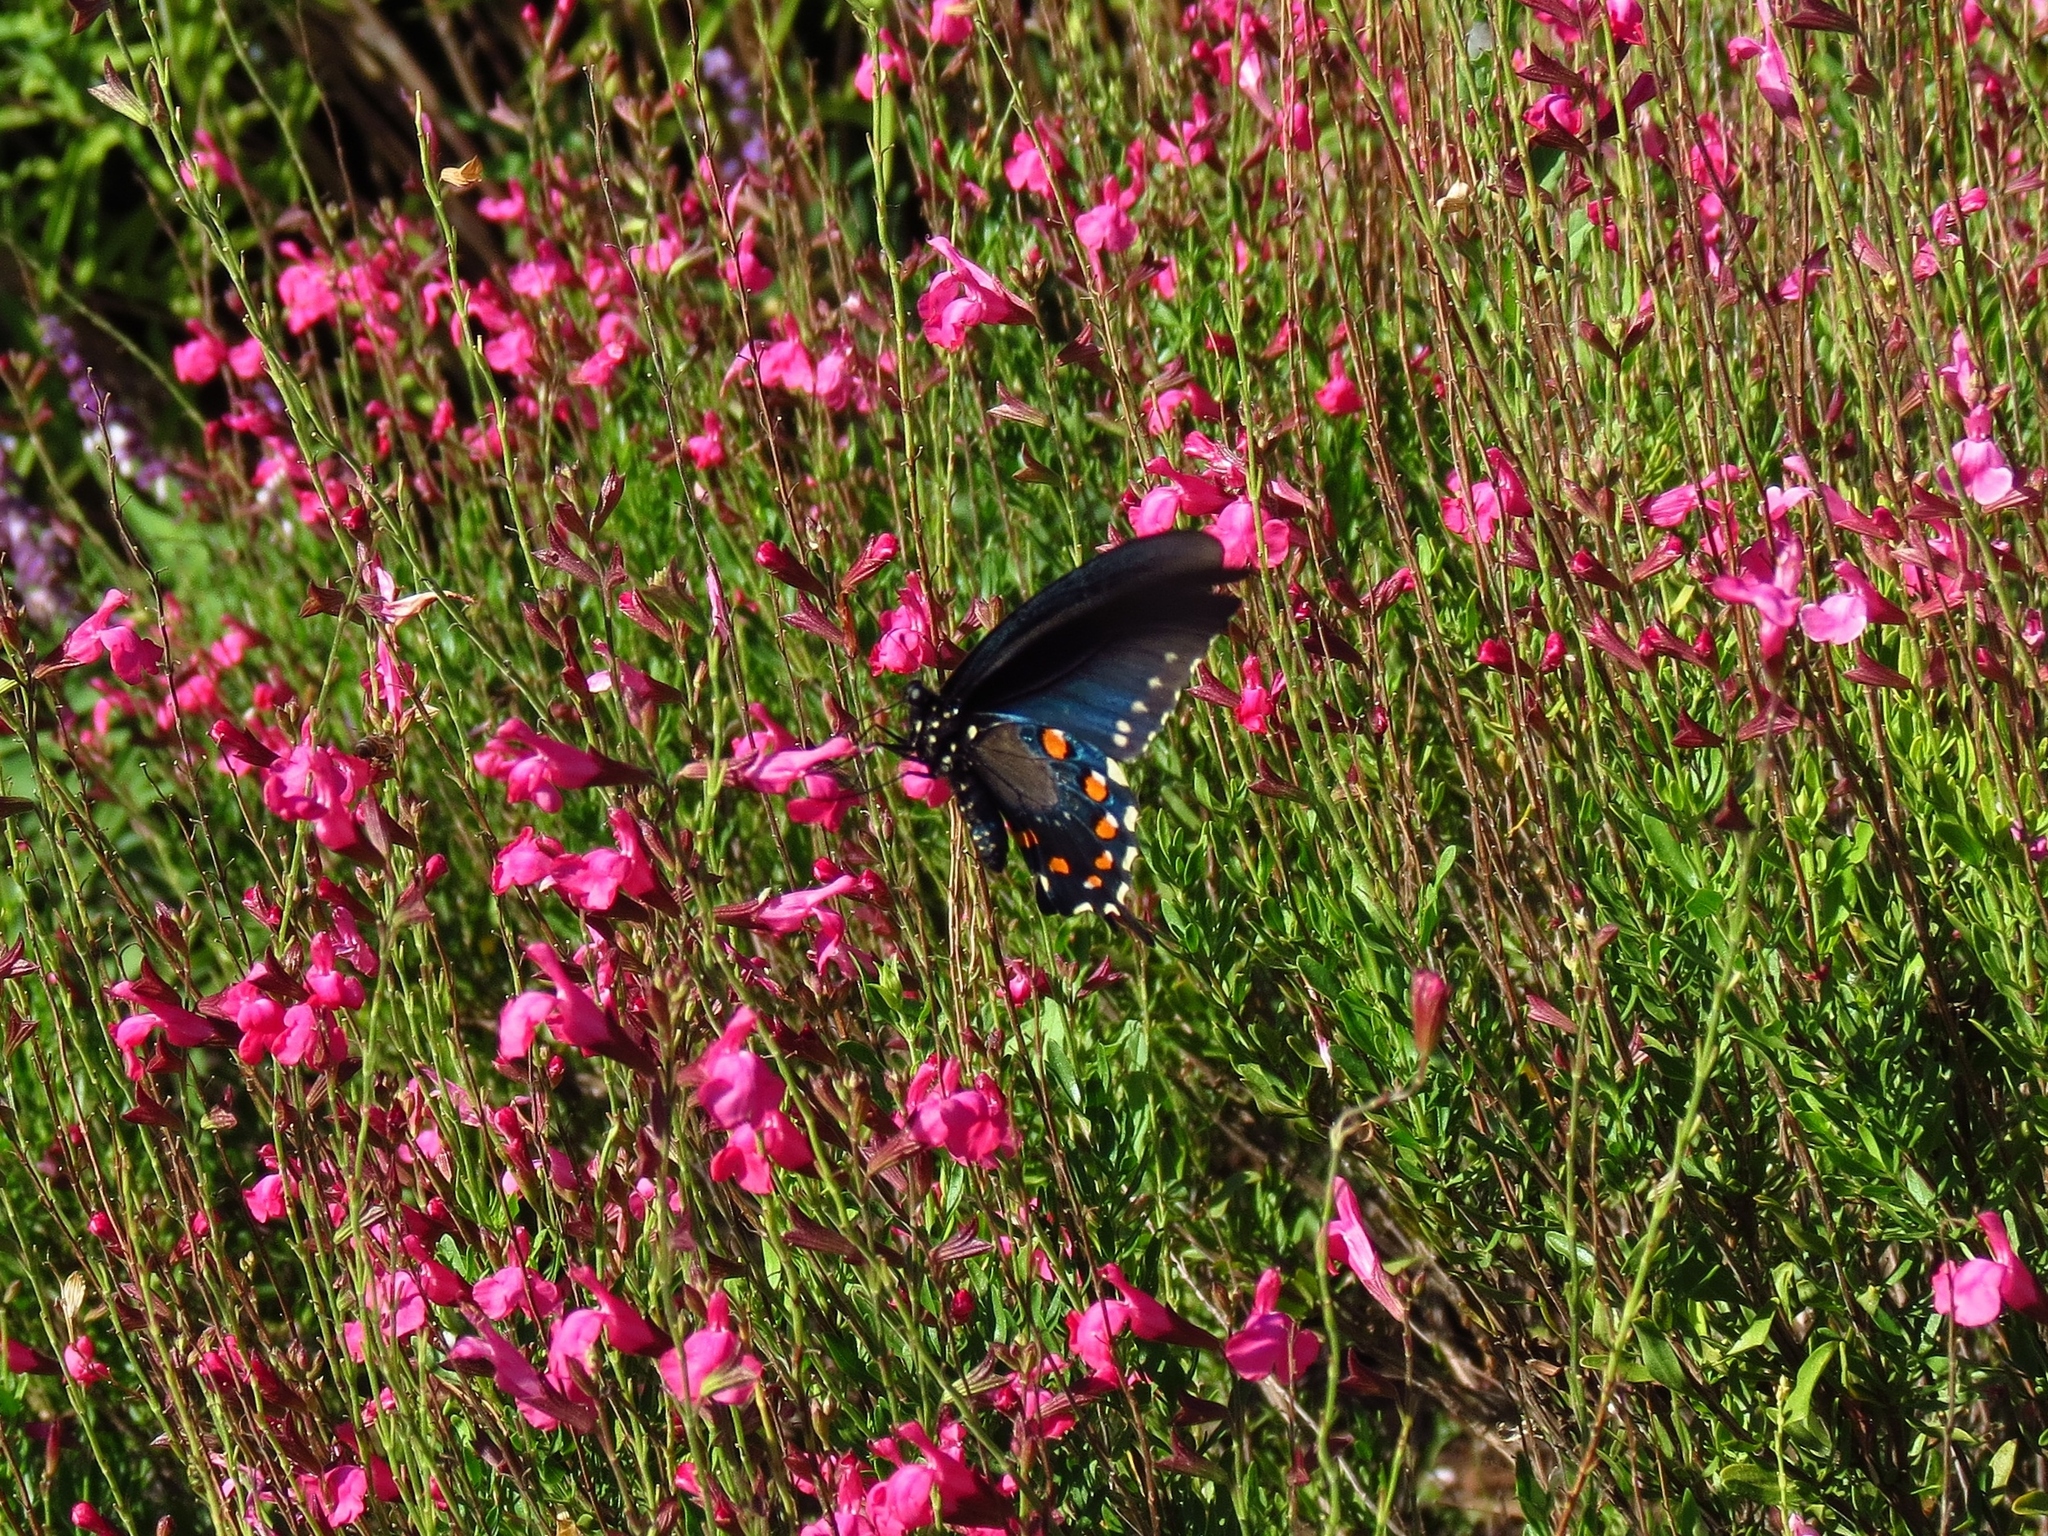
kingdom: Animalia
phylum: Arthropoda
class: Insecta
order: Lepidoptera
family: Papilionidae
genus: Battus
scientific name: Battus philenor
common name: Pipevine swallowtail
